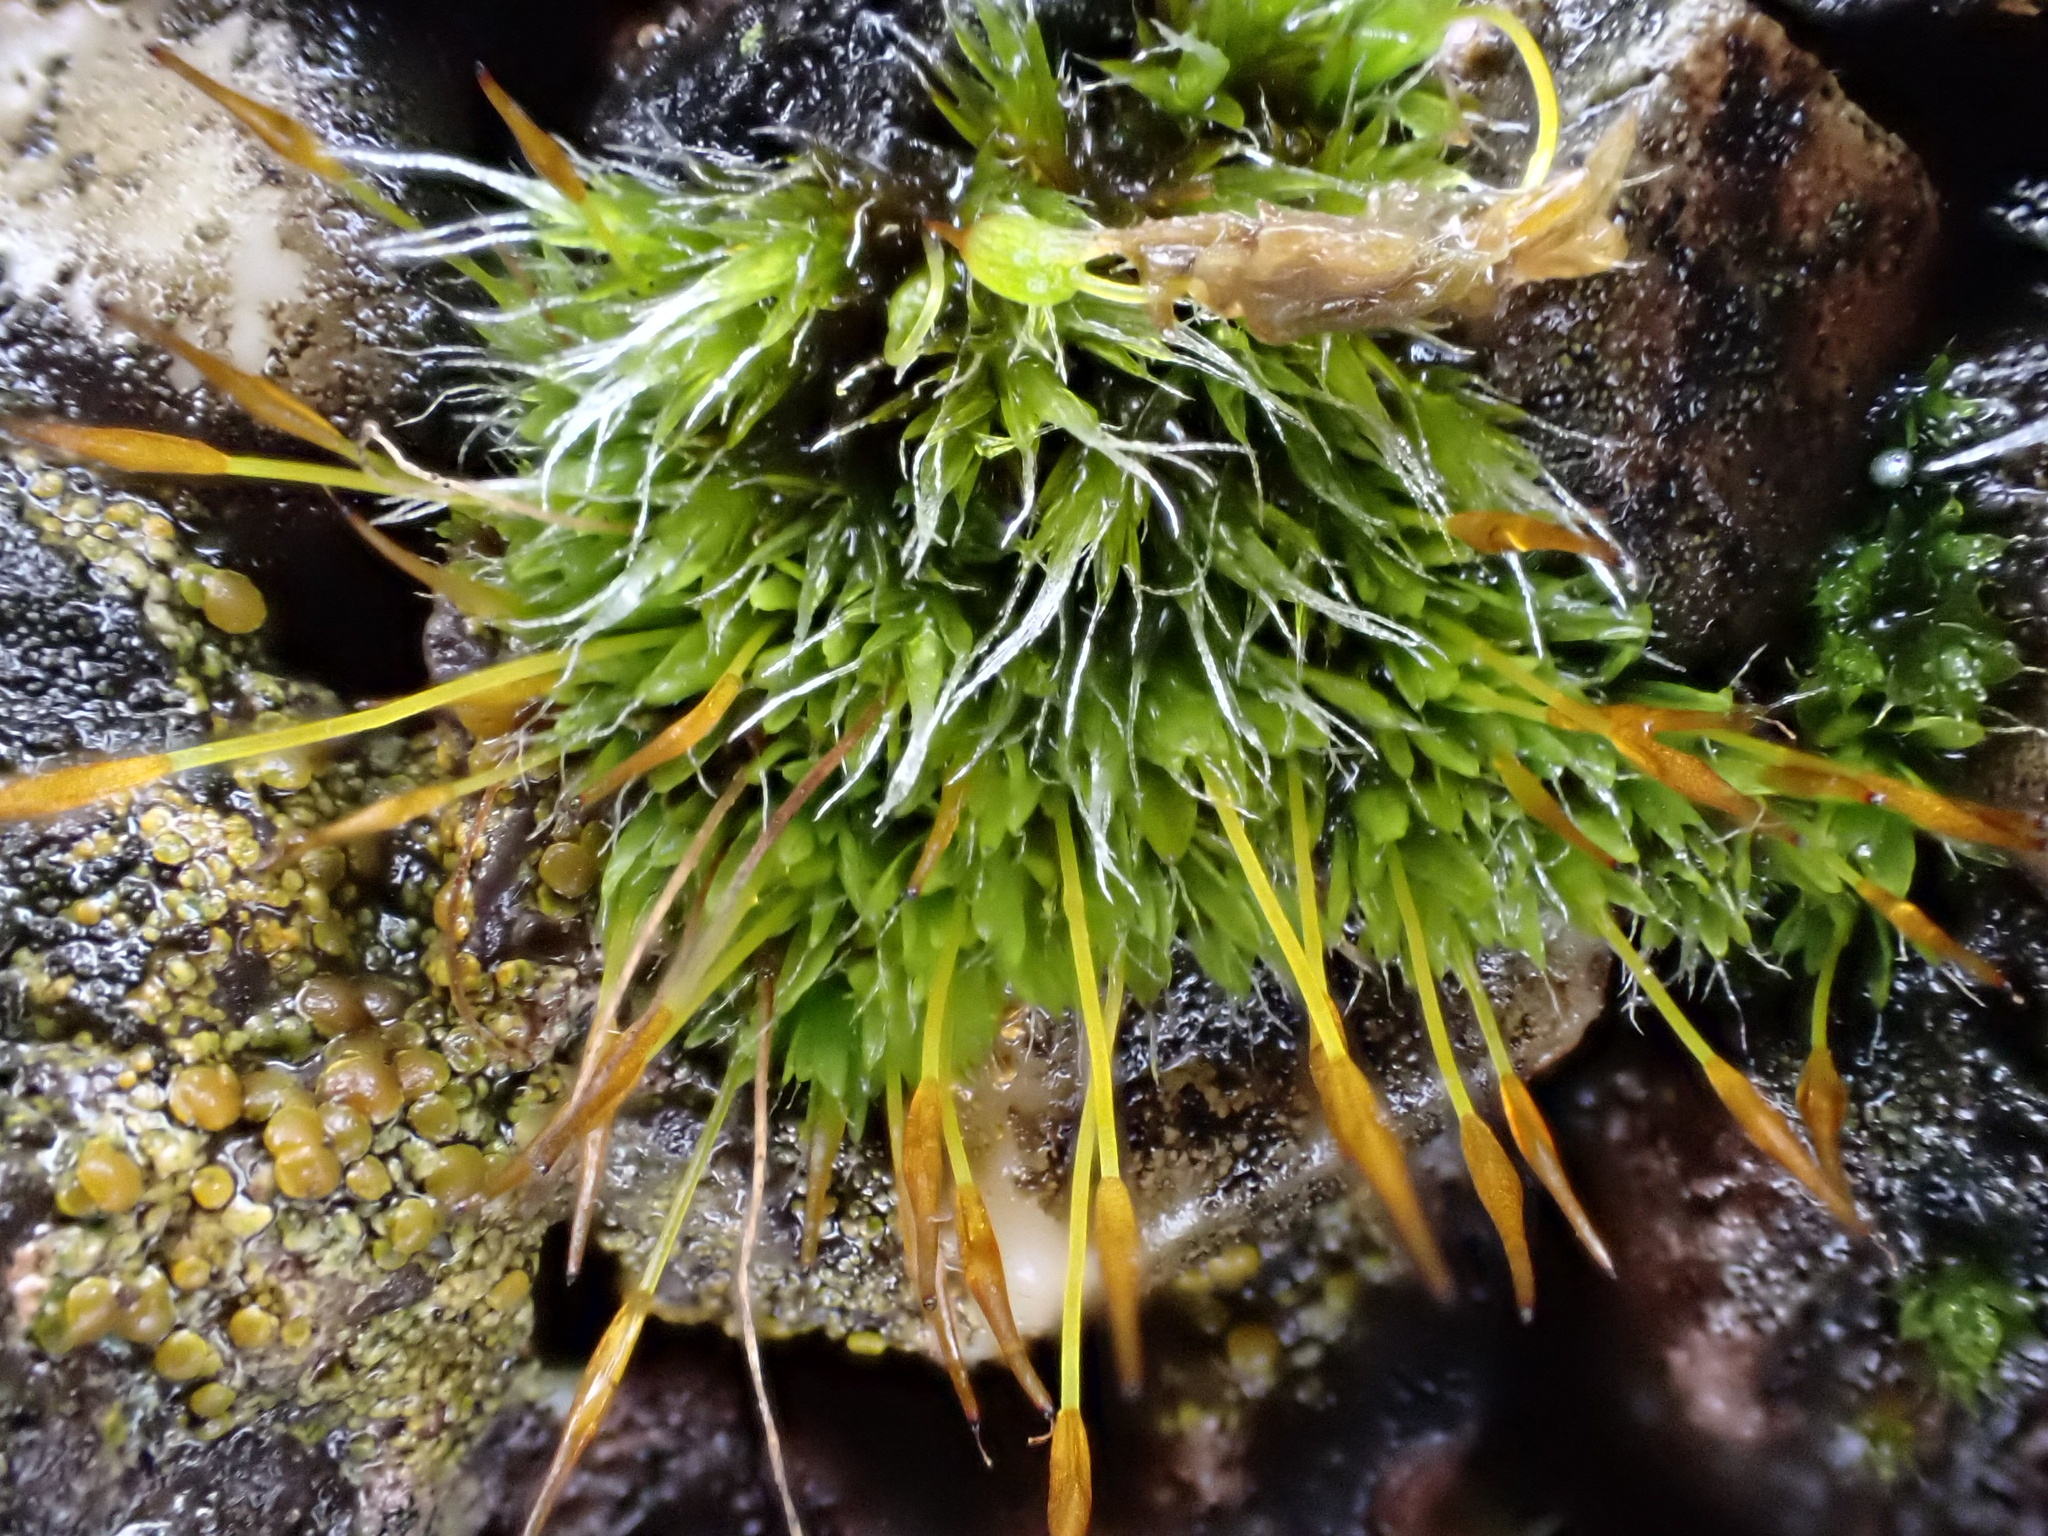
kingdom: Plantae
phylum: Bryophyta
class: Bryopsida
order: Pottiales
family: Pottiaceae
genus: Tortula
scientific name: Tortula muralis
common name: Wall screw-moss
